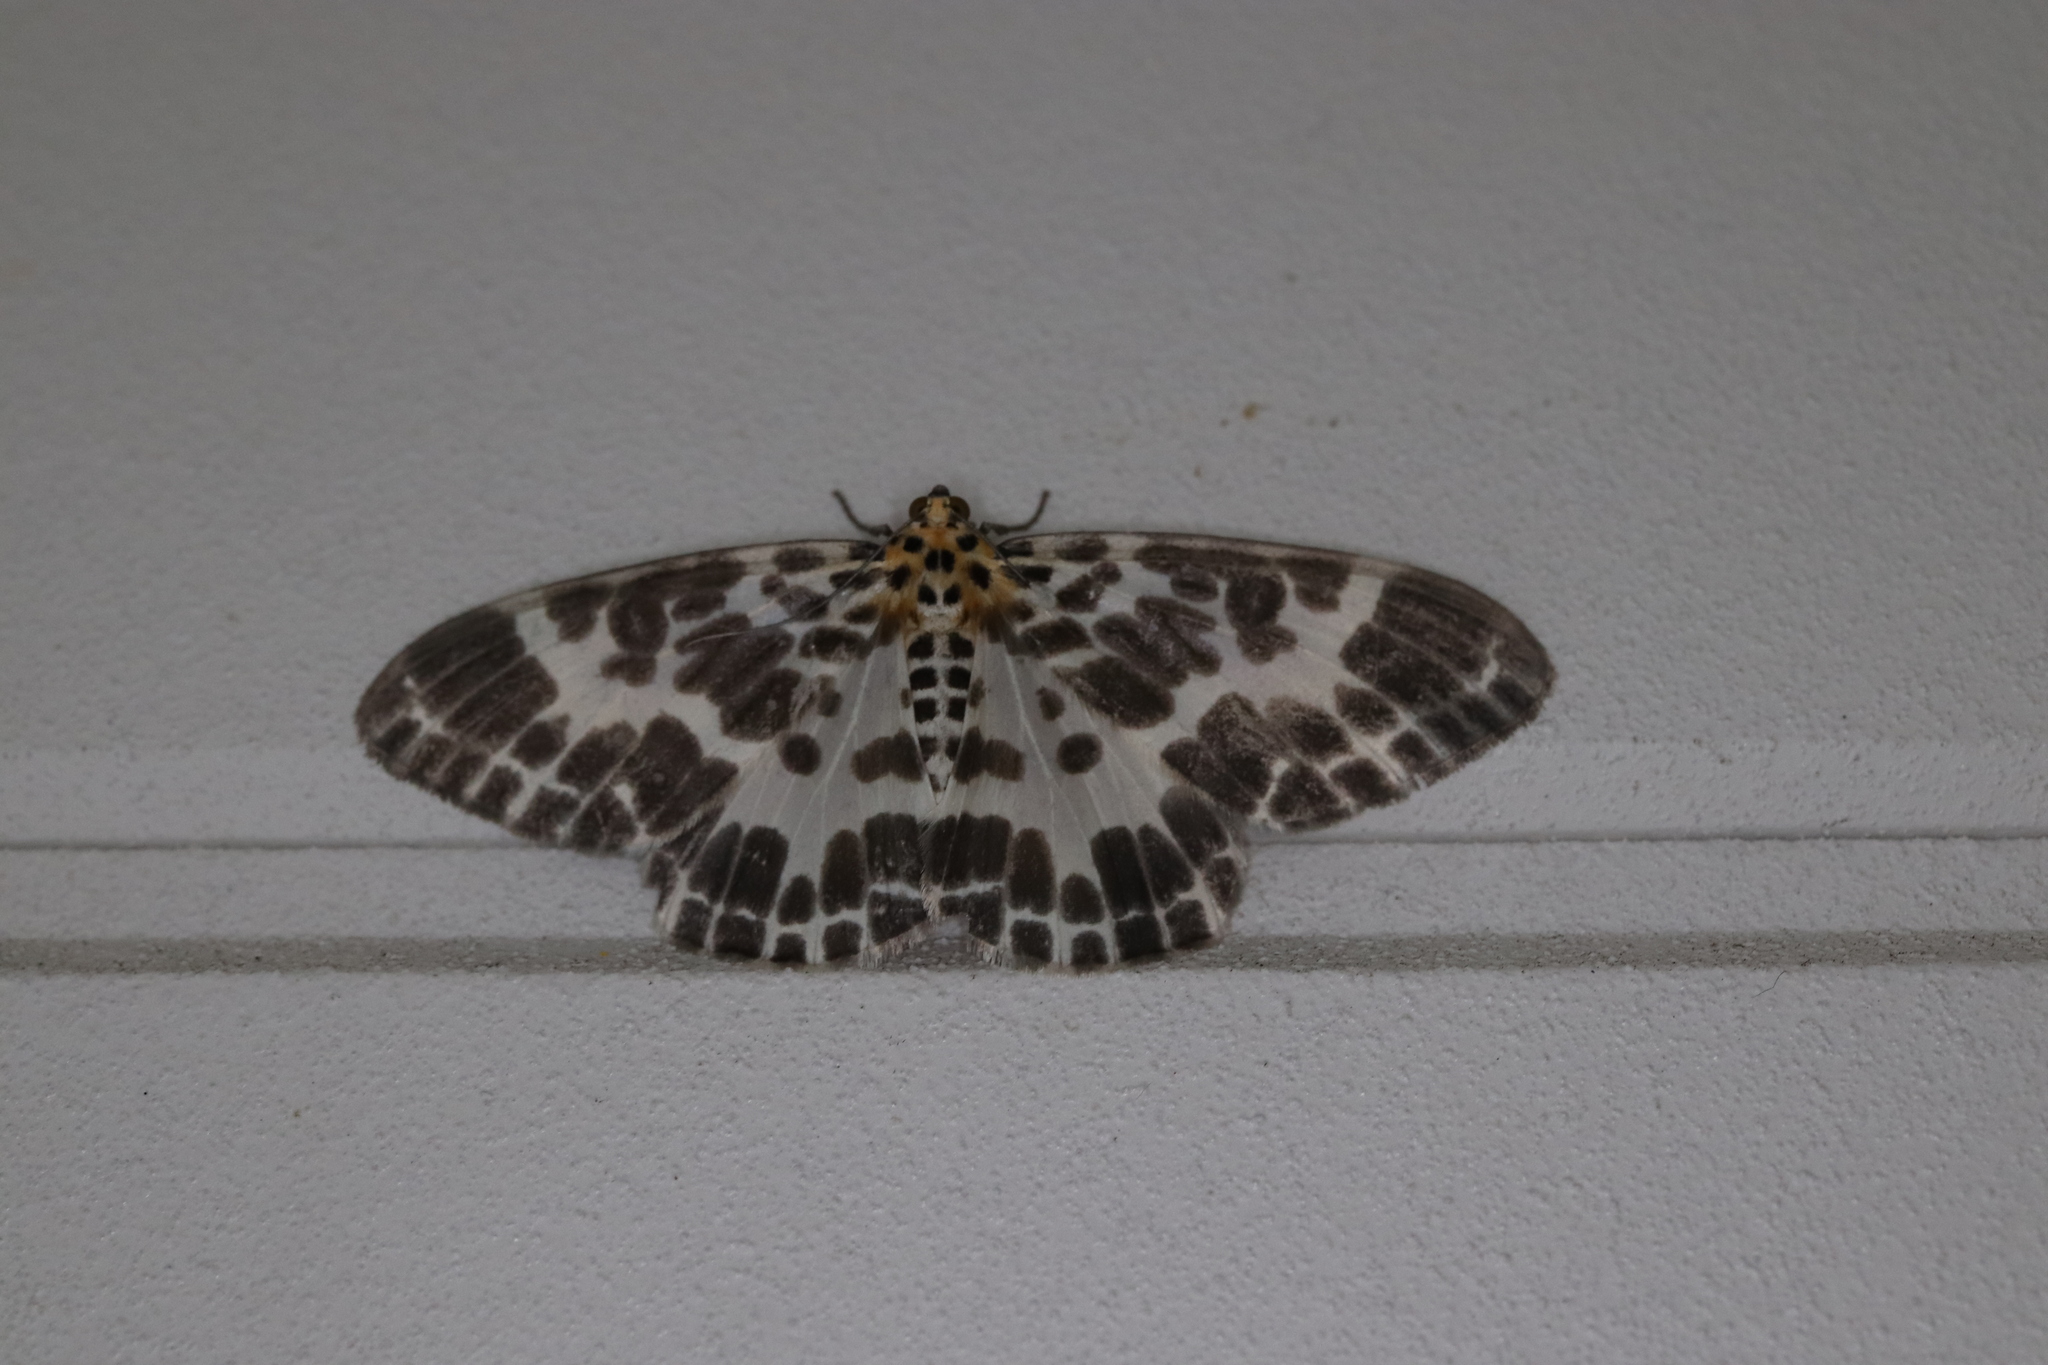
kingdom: Animalia
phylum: Arthropoda
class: Insecta
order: Lepidoptera
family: Geometridae
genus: Pogonopygia
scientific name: Pogonopygia nigralbata
